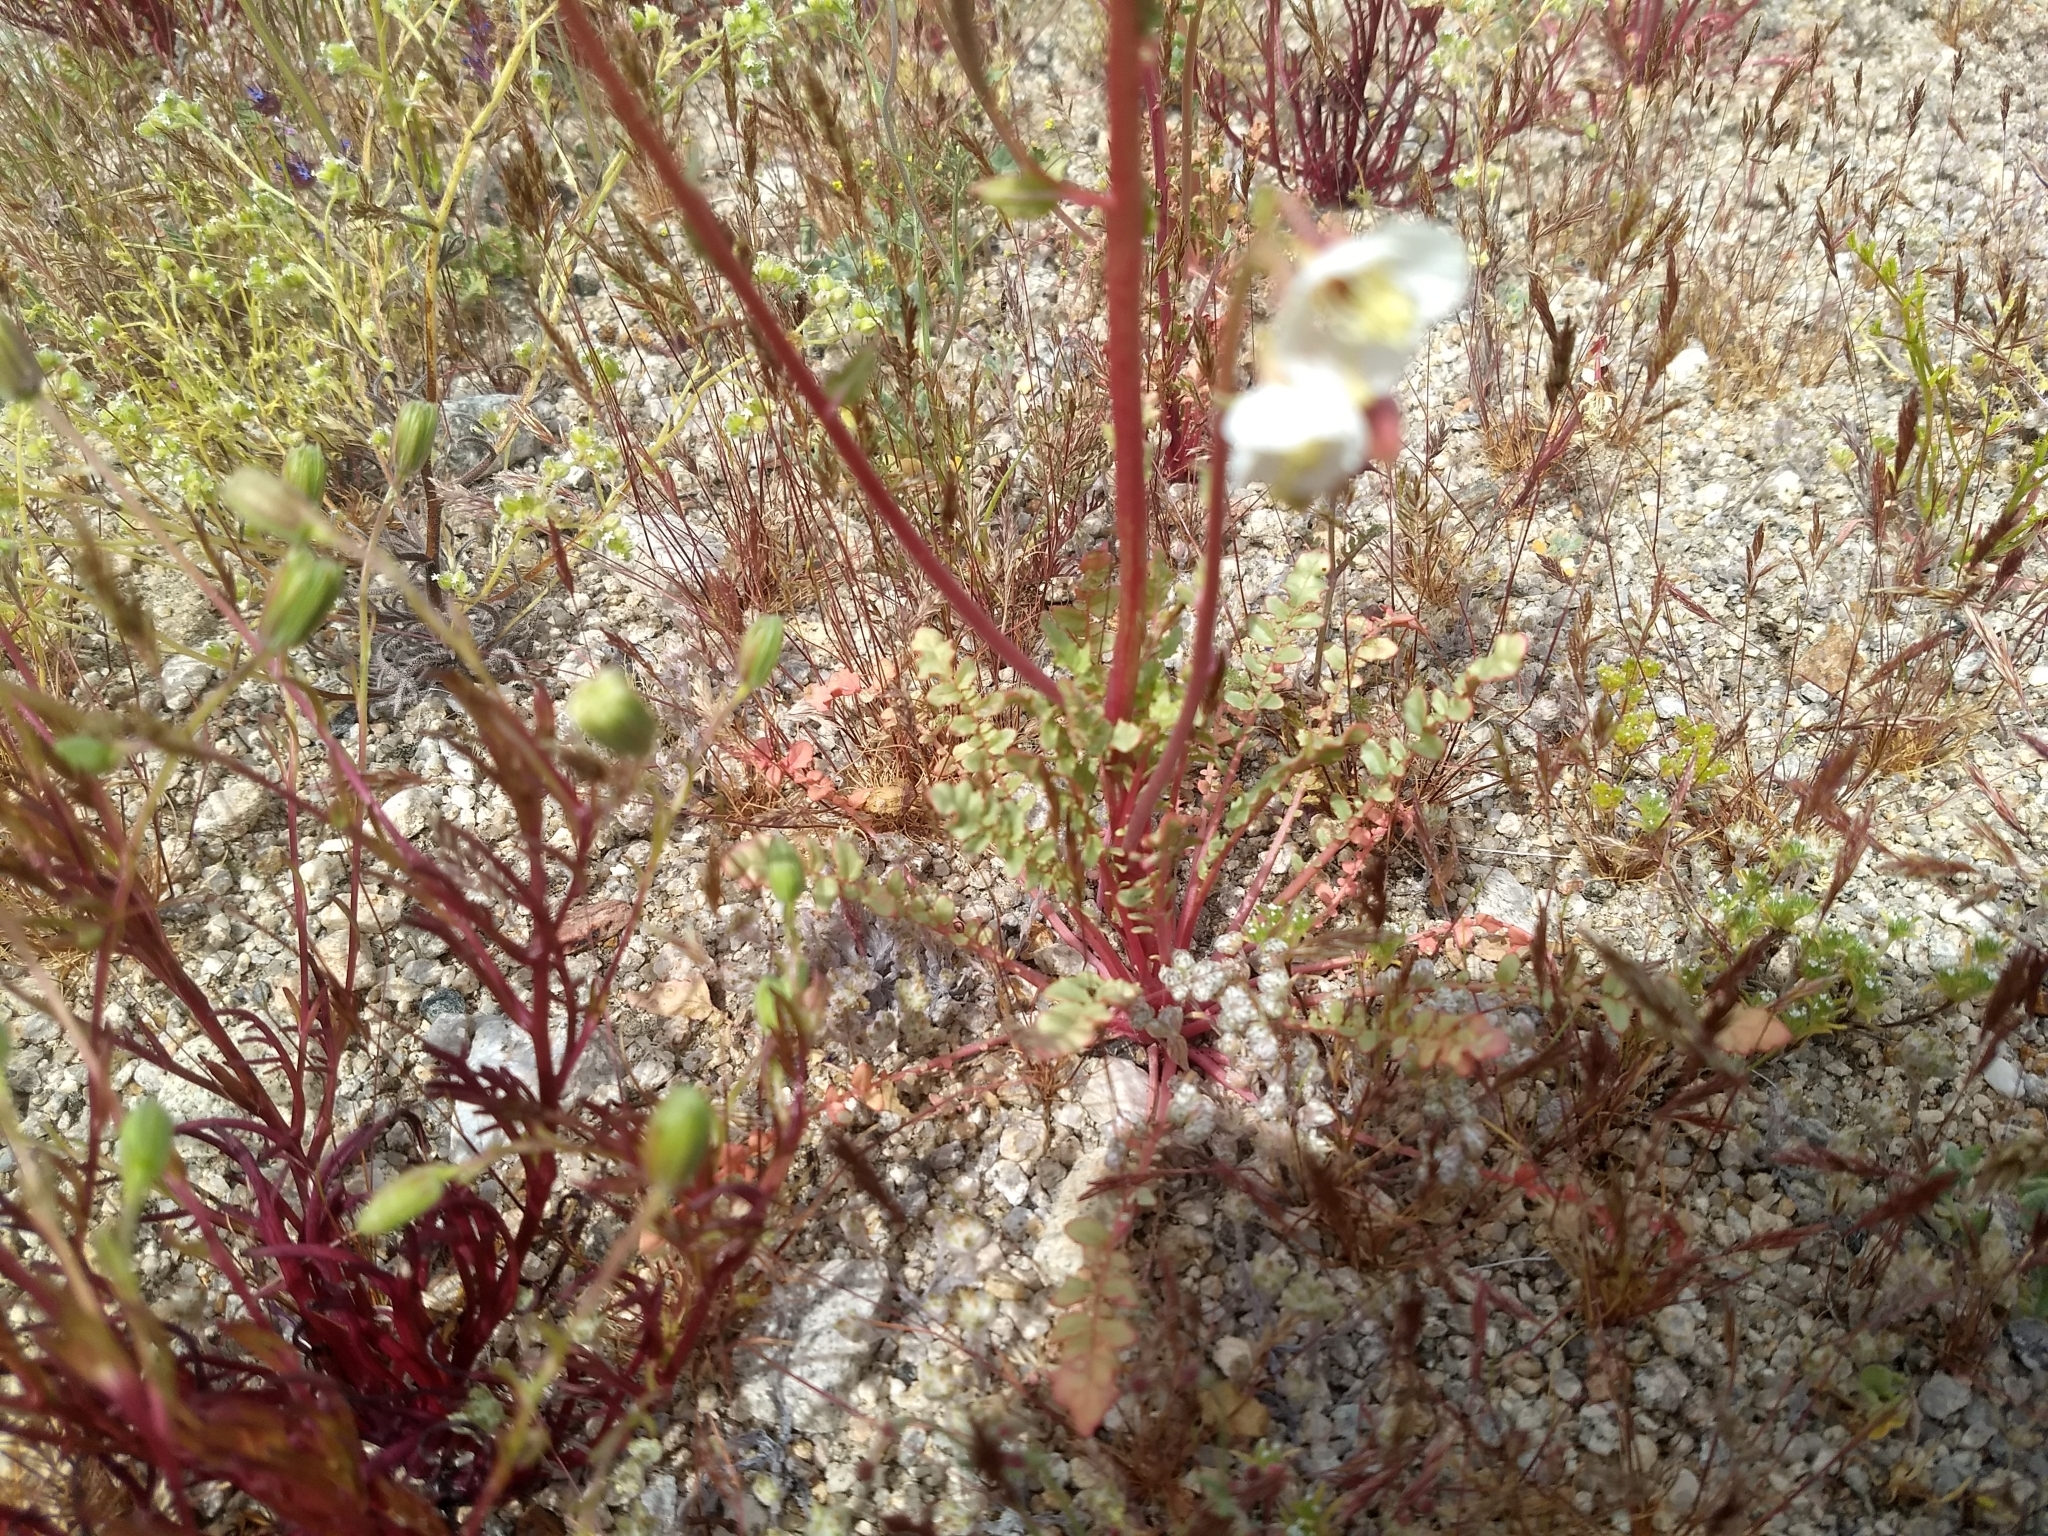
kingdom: Plantae
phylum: Tracheophyta
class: Magnoliopsida
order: Myrtales
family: Onagraceae
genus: Chylismia
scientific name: Chylismia claviformis
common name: Browneyes
